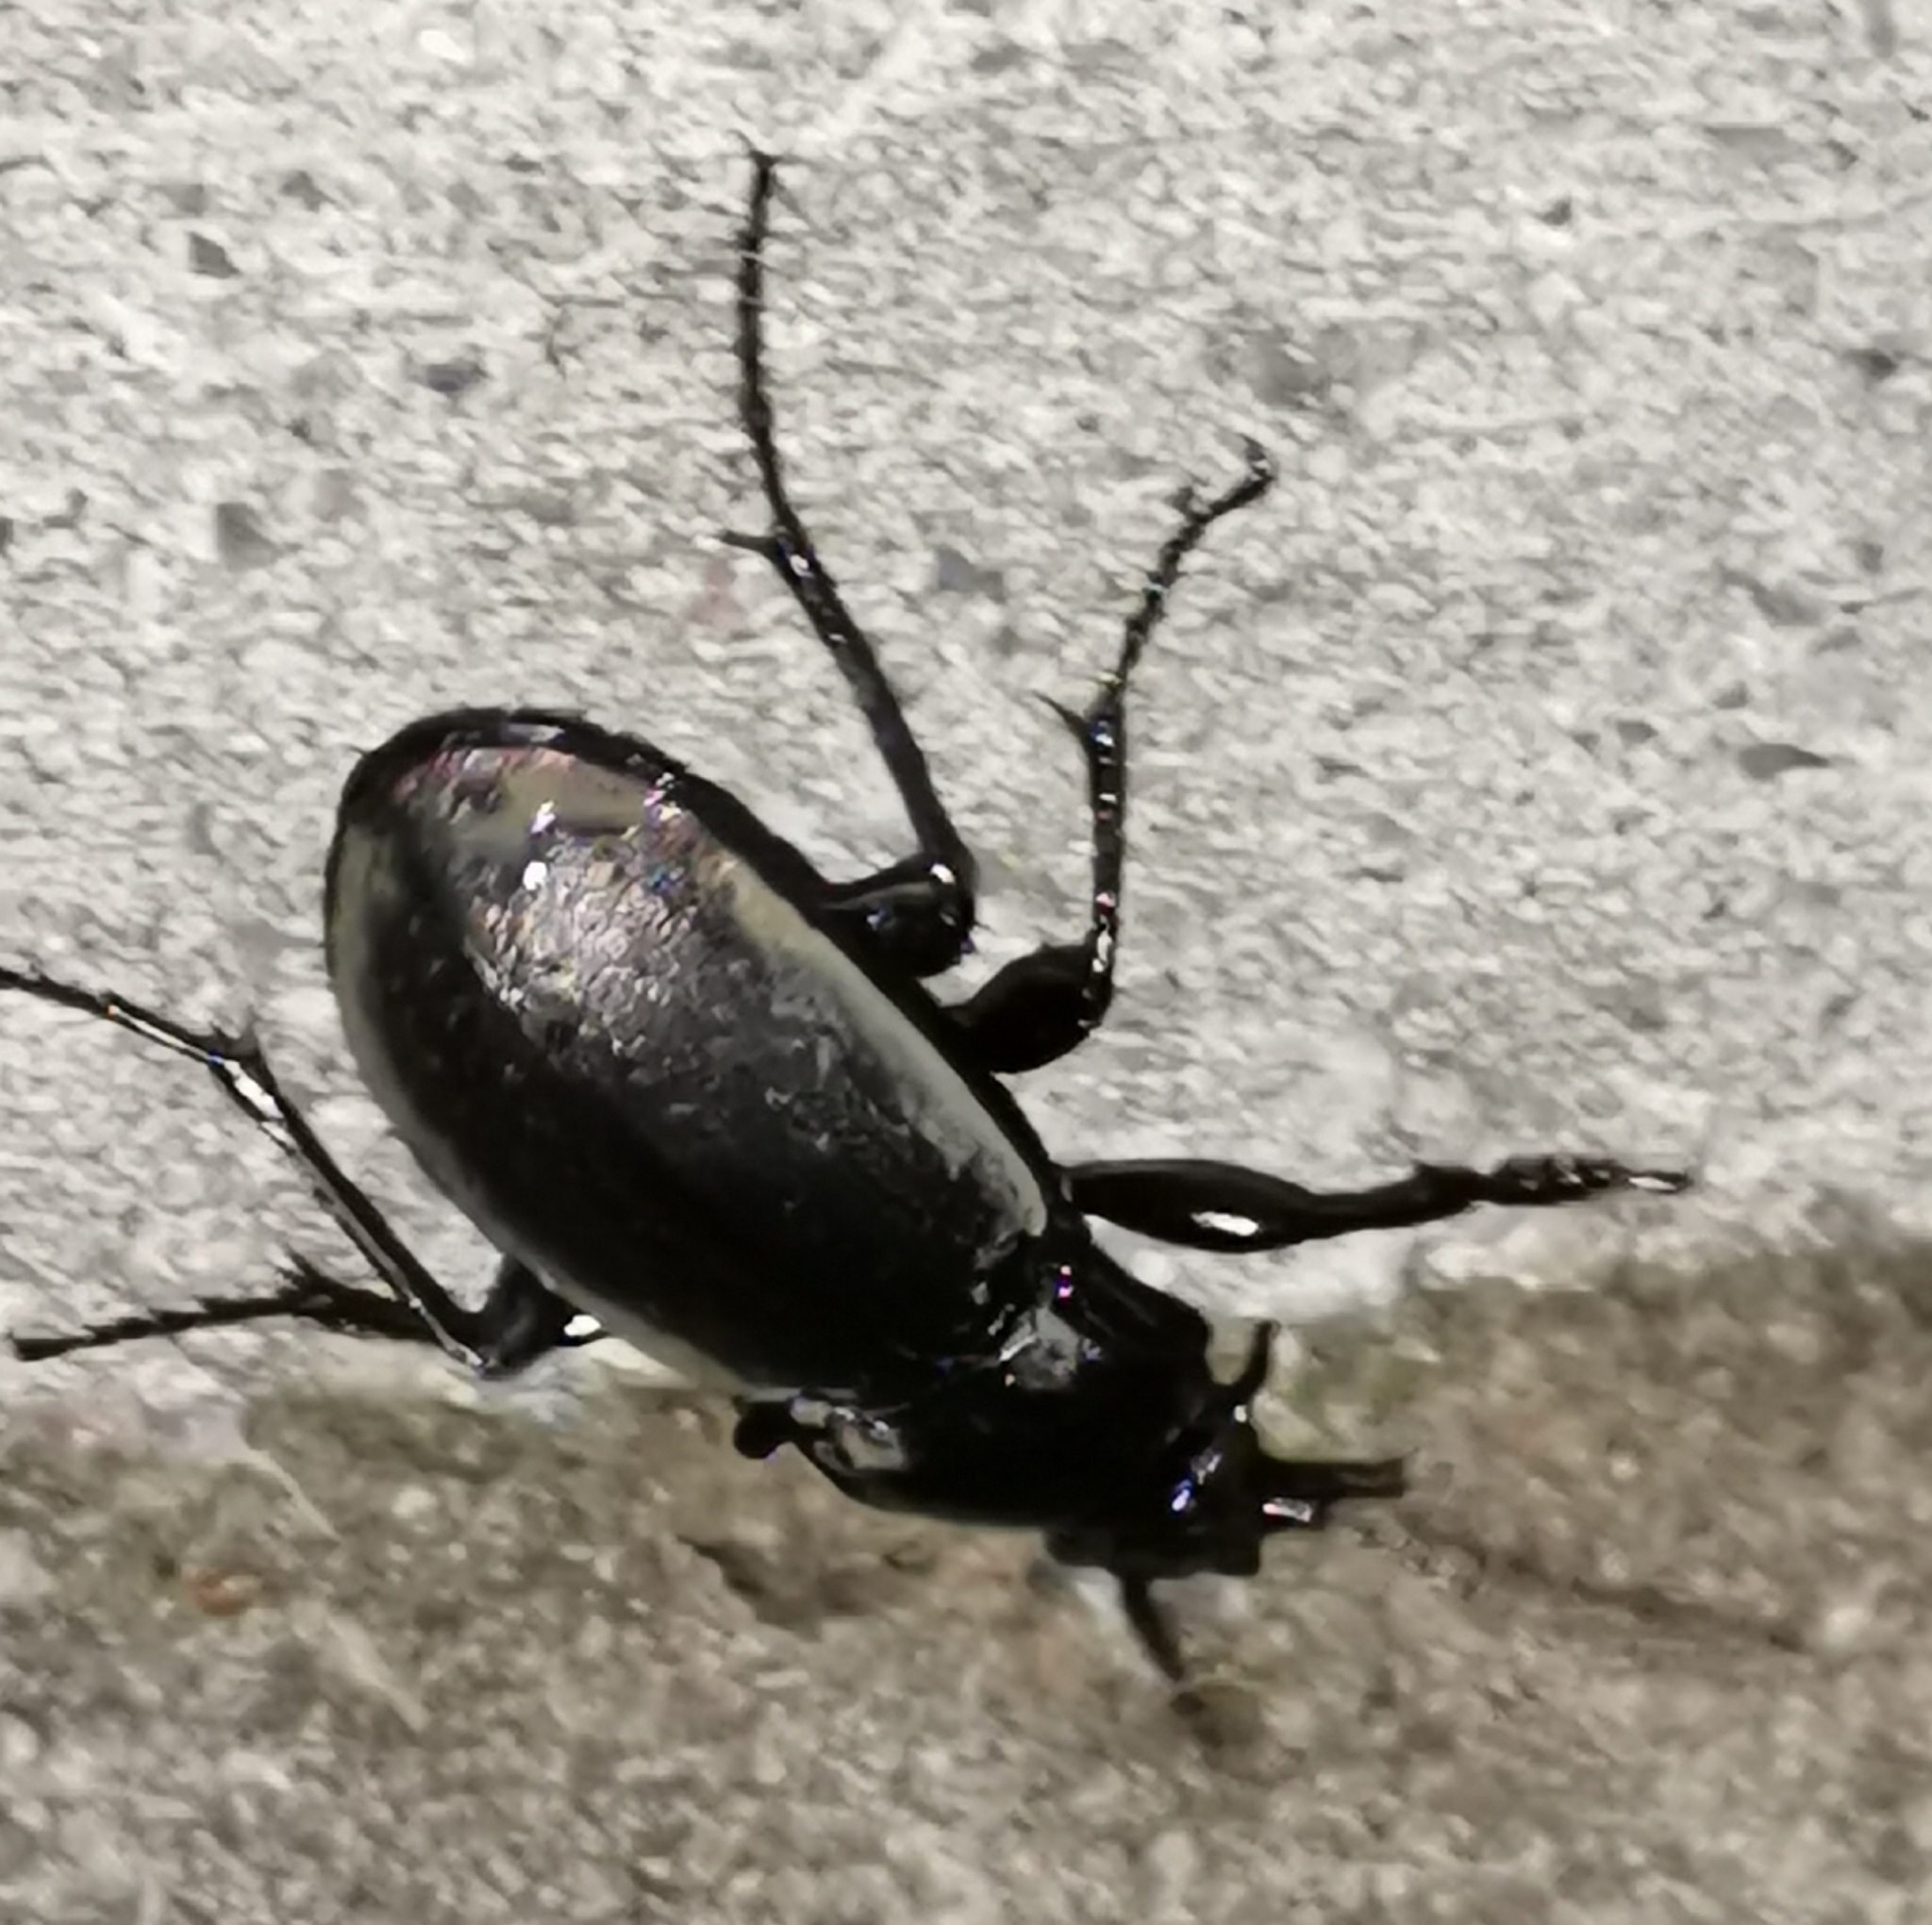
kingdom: Animalia
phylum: Arthropoda
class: Insecta
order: Coleoptera
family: Carabidae
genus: Carabus
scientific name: Carabus nemoralis
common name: European ground beetle
